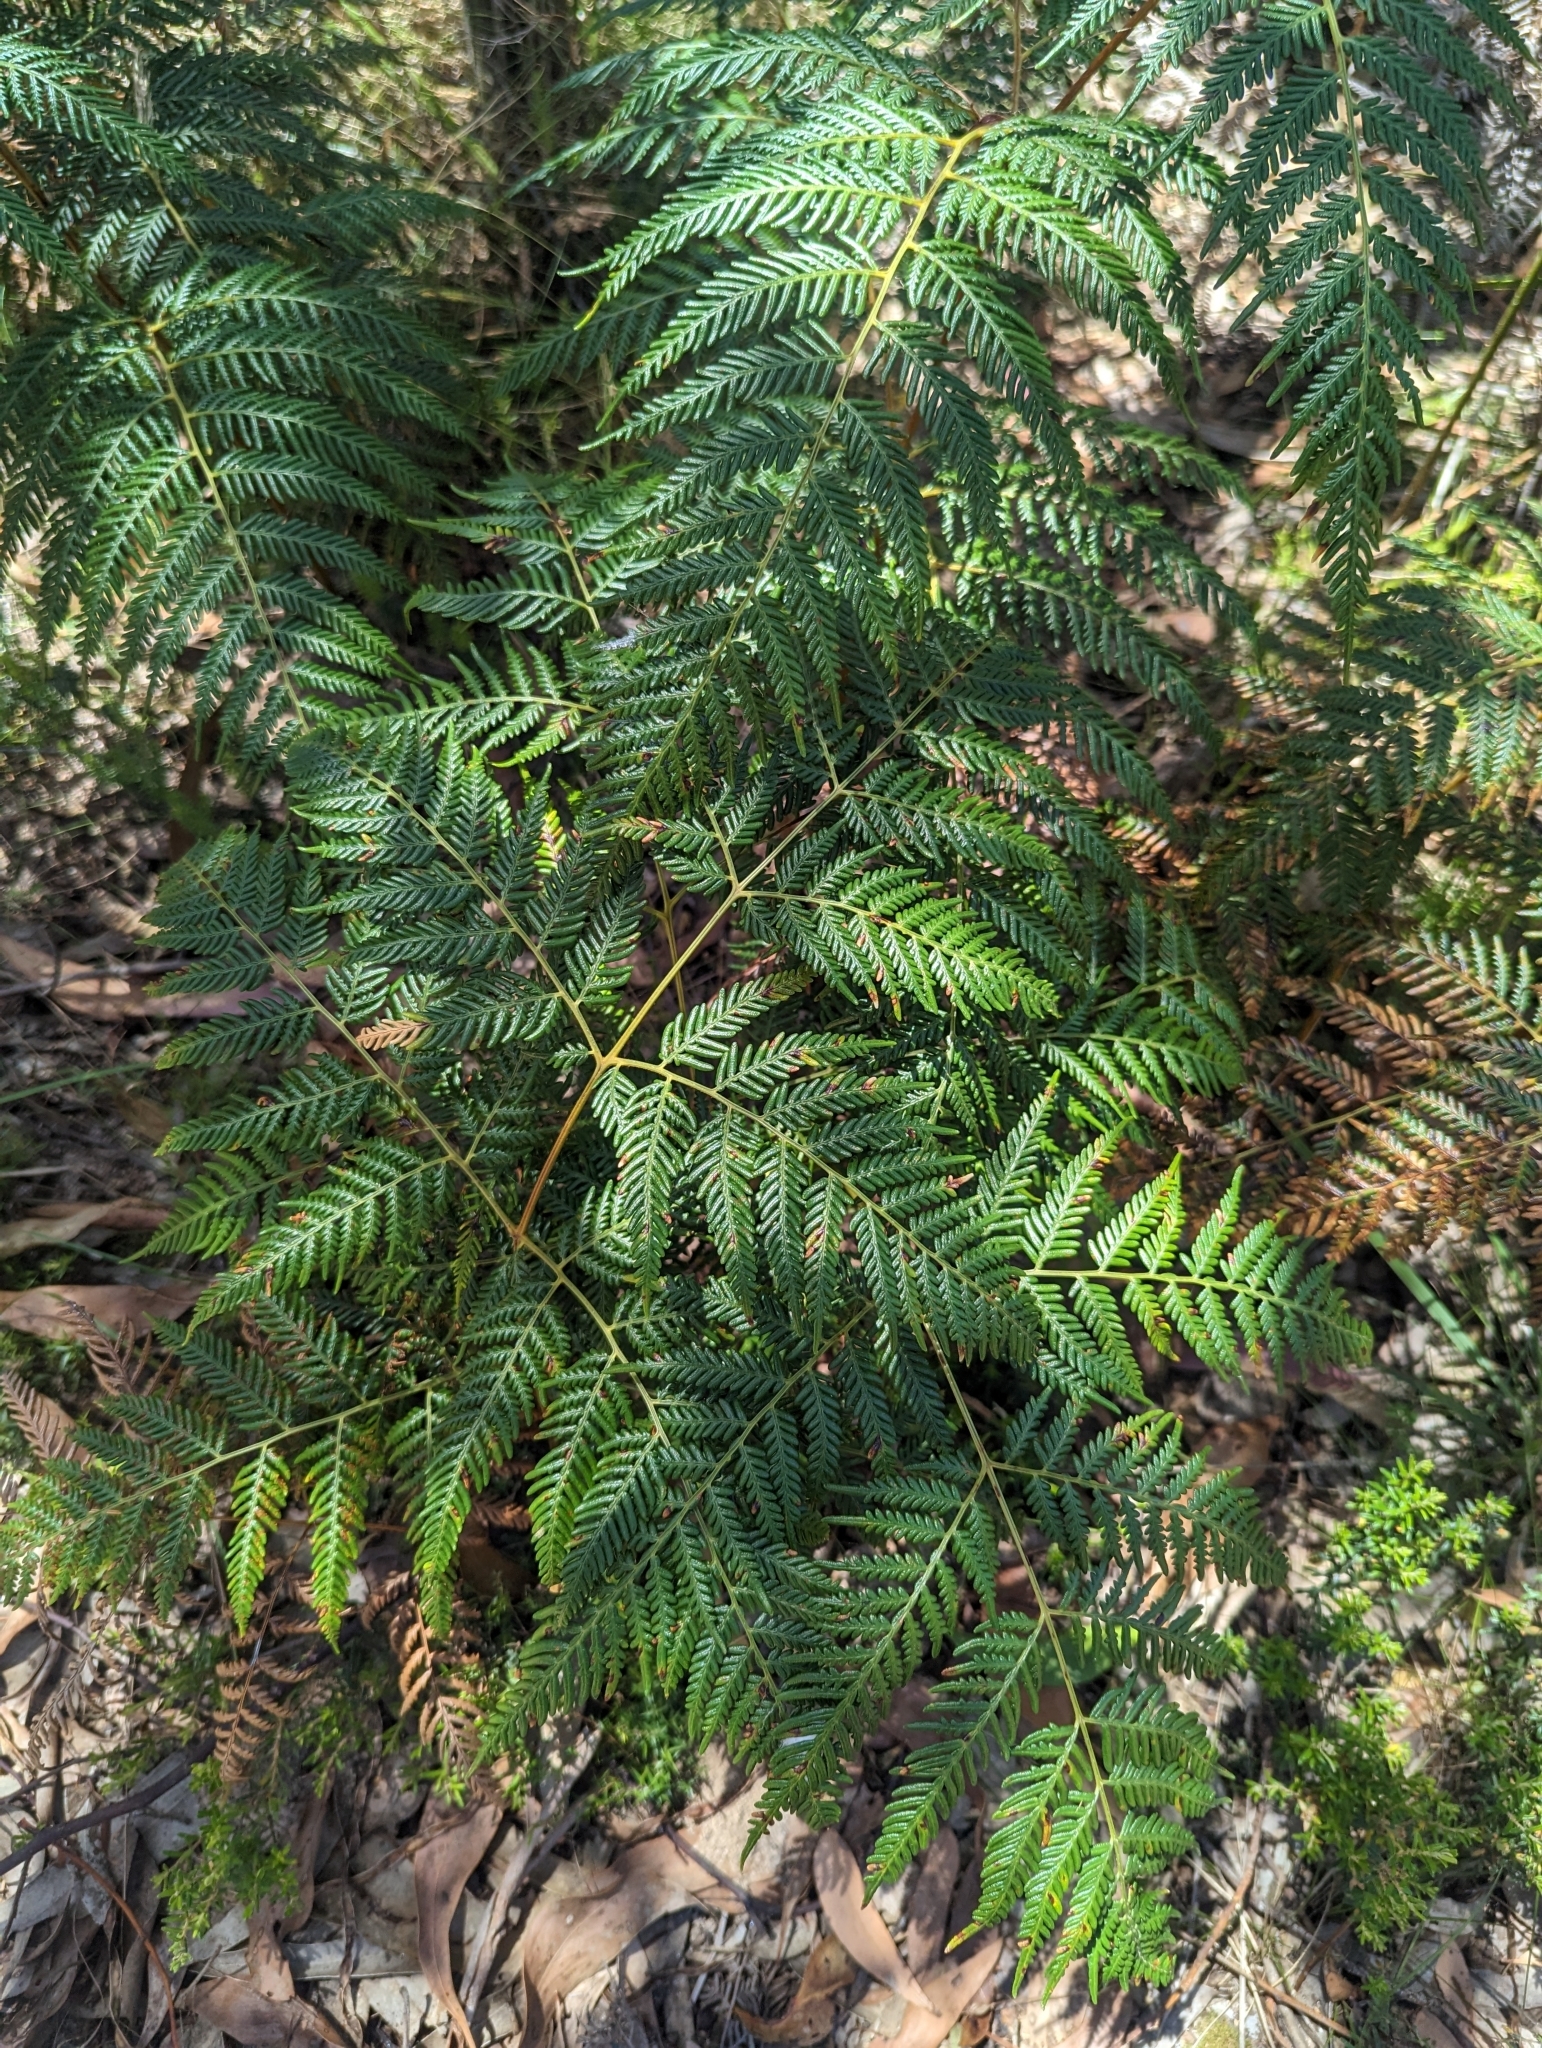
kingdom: Plantae
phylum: Tracheophyta
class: Polypodiopsida
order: Polypodiales
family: Dennstaedtiaceae
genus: Pteridium
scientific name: Pteridium esculentum
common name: Bracken fern
